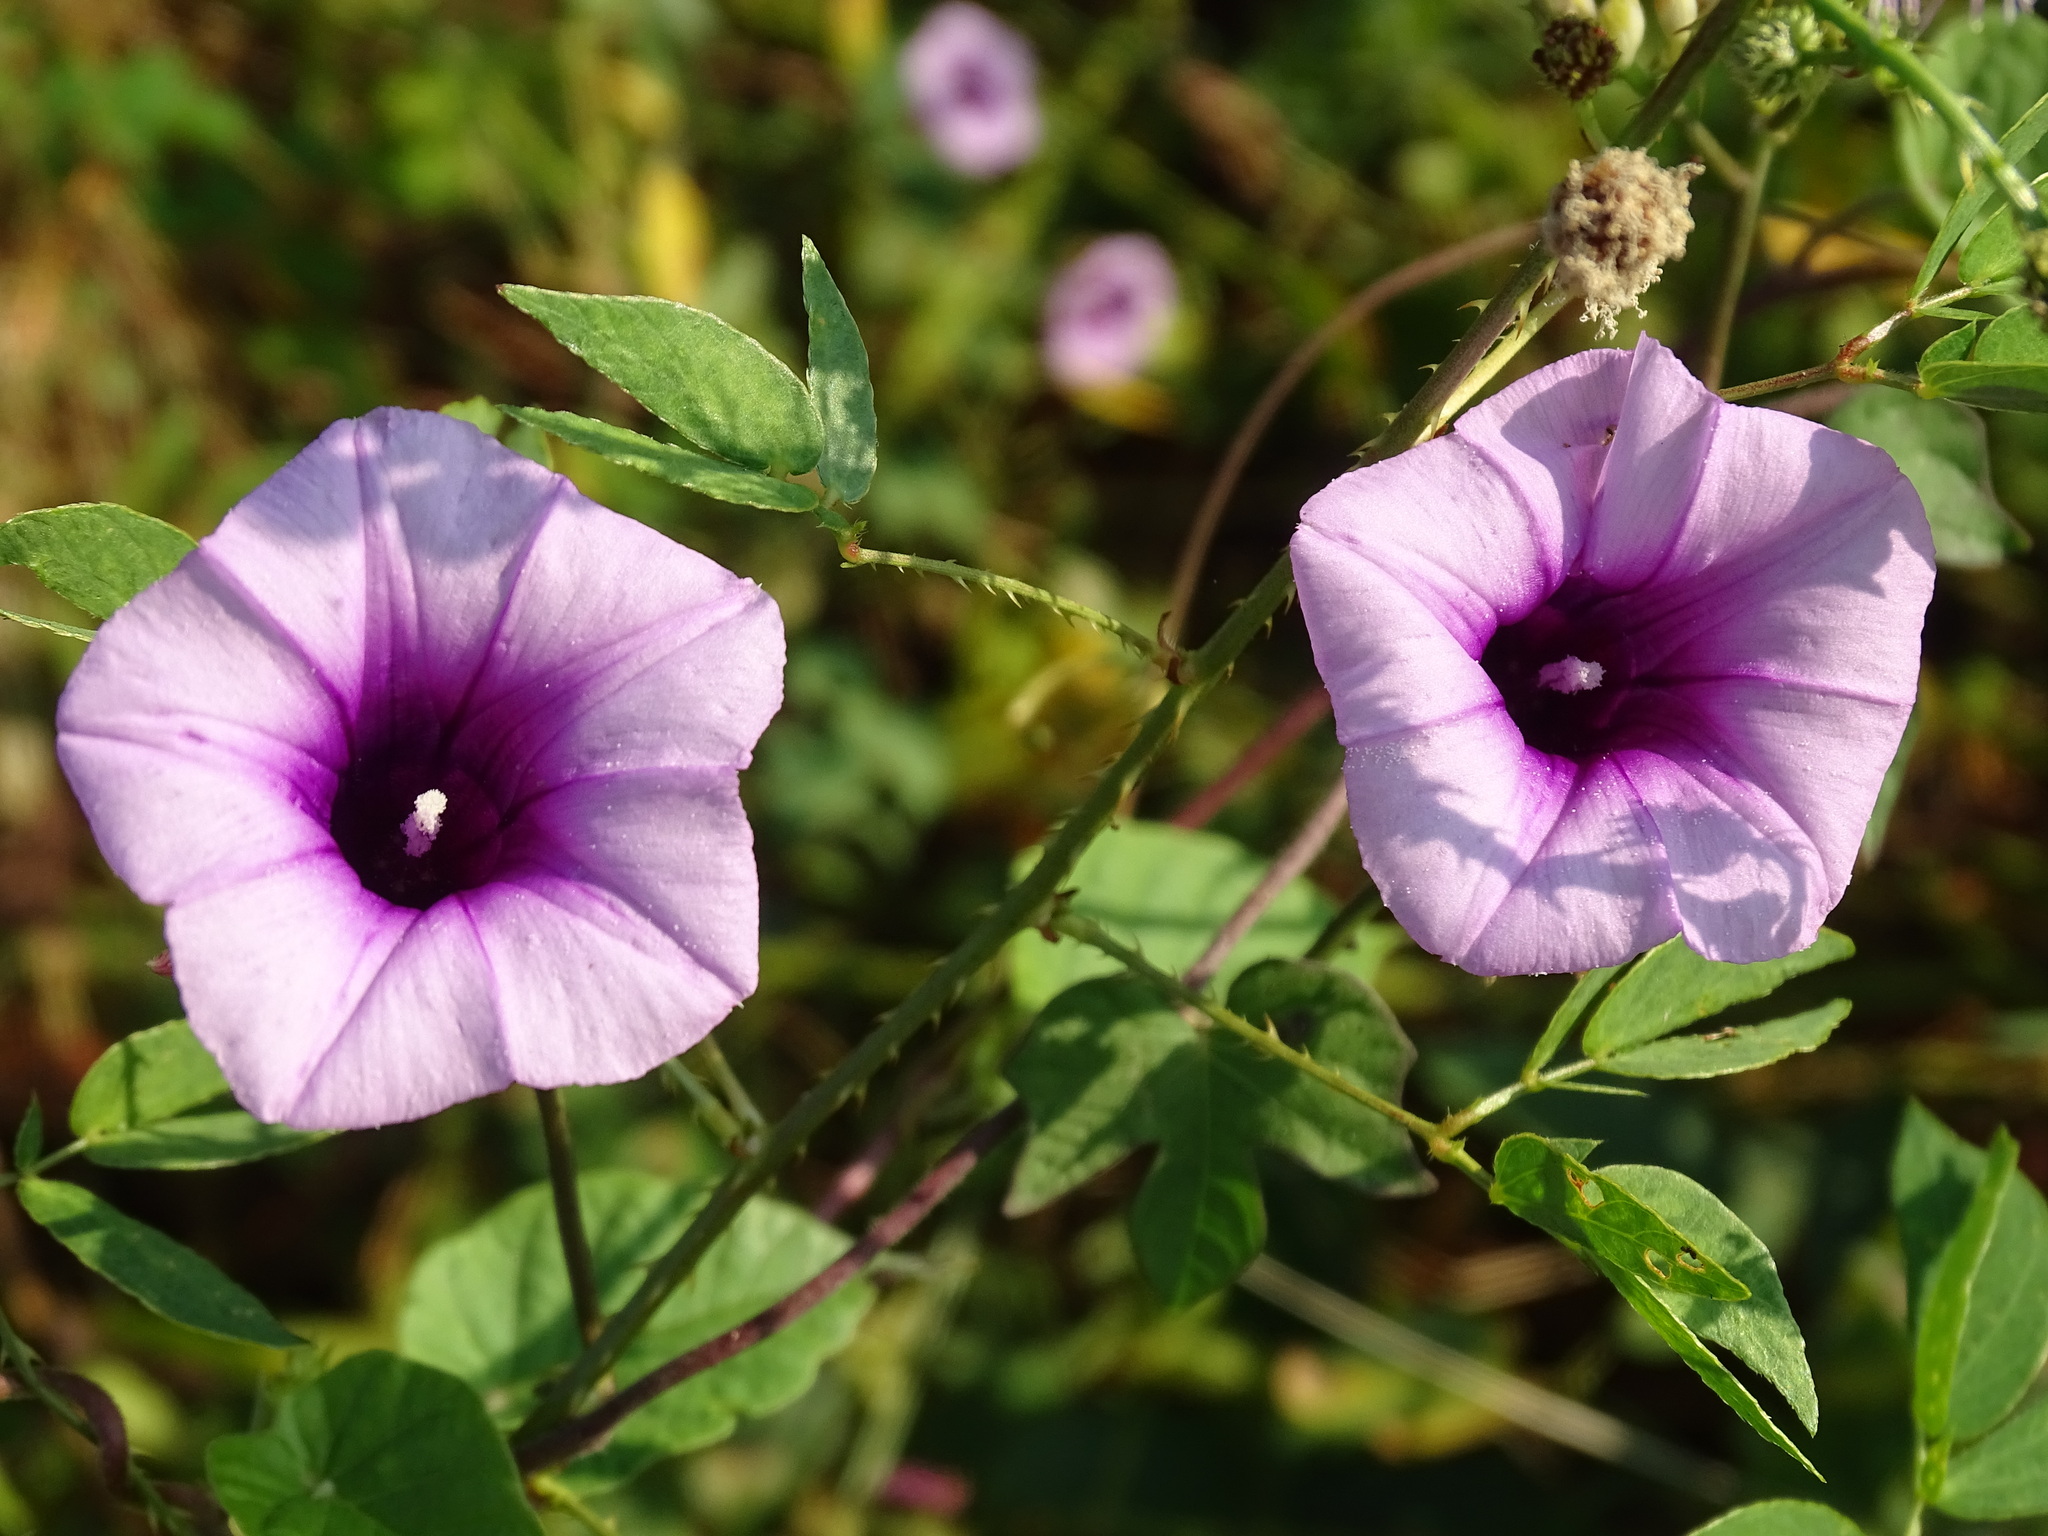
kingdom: Plantae
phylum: Tracheophyta
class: Magnoliopsida
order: Solanales
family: Convolvulaceae
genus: Ipomoea
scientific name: Ipomoea trifida
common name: Cotton morningglory
